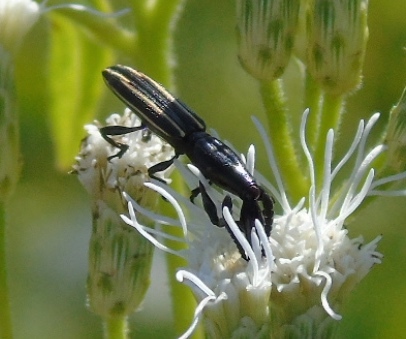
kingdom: Animalia
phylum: Arthropoda
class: Insecta
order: Coleoptera
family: Brentidae
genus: Brentus
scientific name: Brentus anchorago
